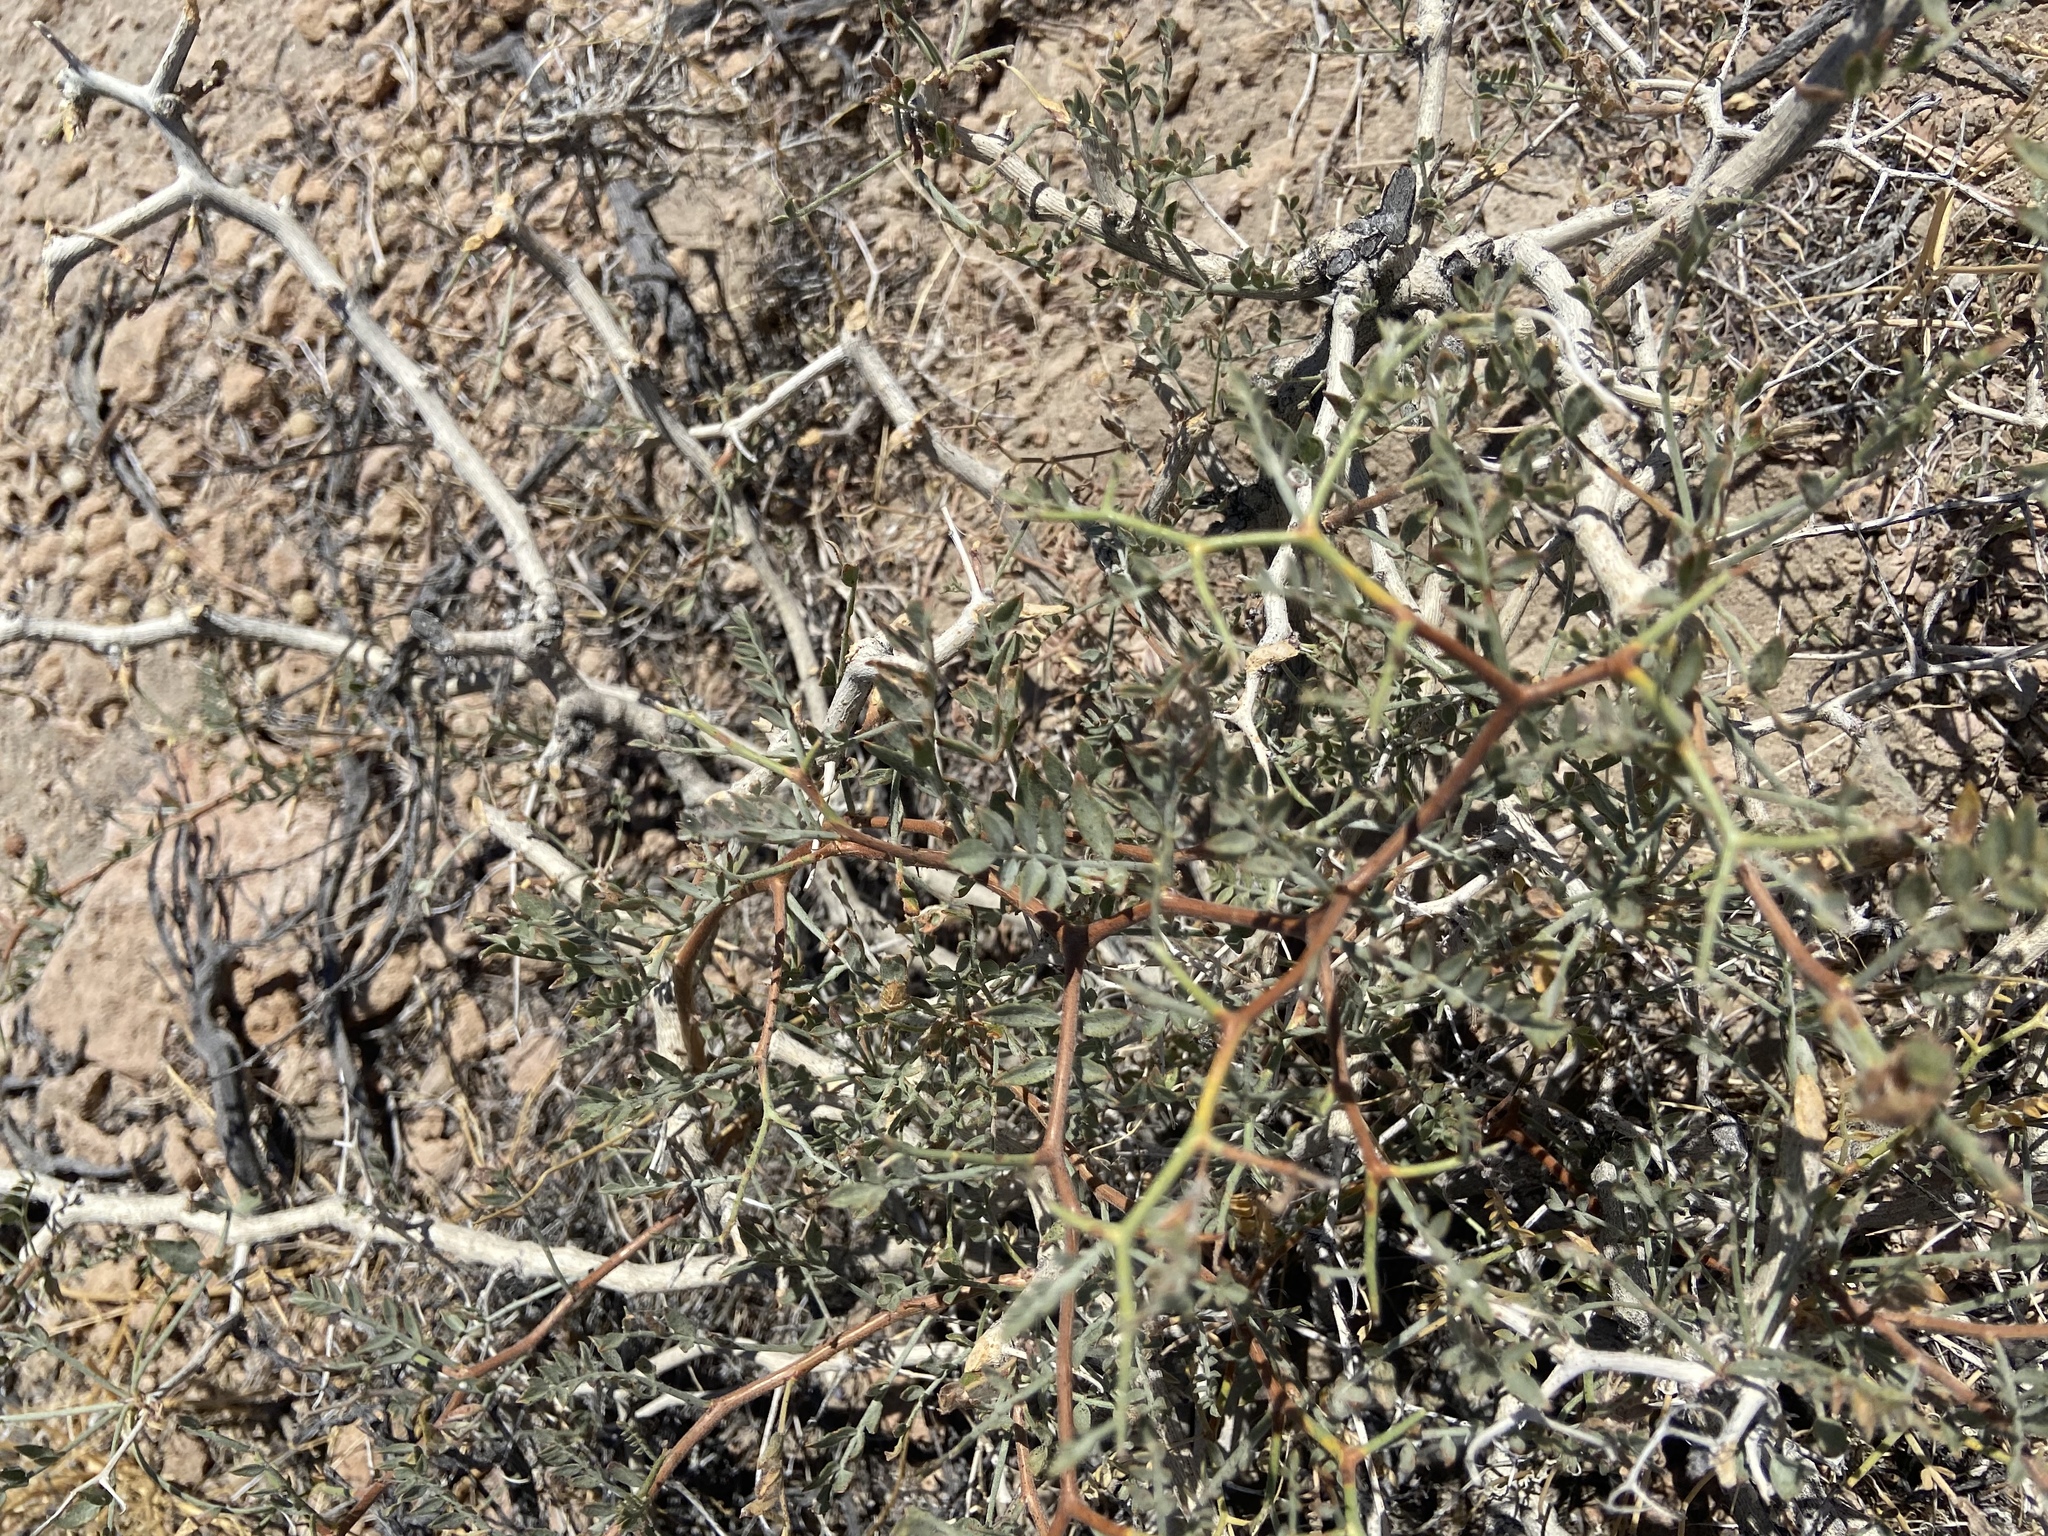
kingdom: Plantae
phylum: Tracheophyta
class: Magnoliopsida
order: Fabales
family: Fabaceae
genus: Psorothamnus
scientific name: Psorothamnus arborescens
